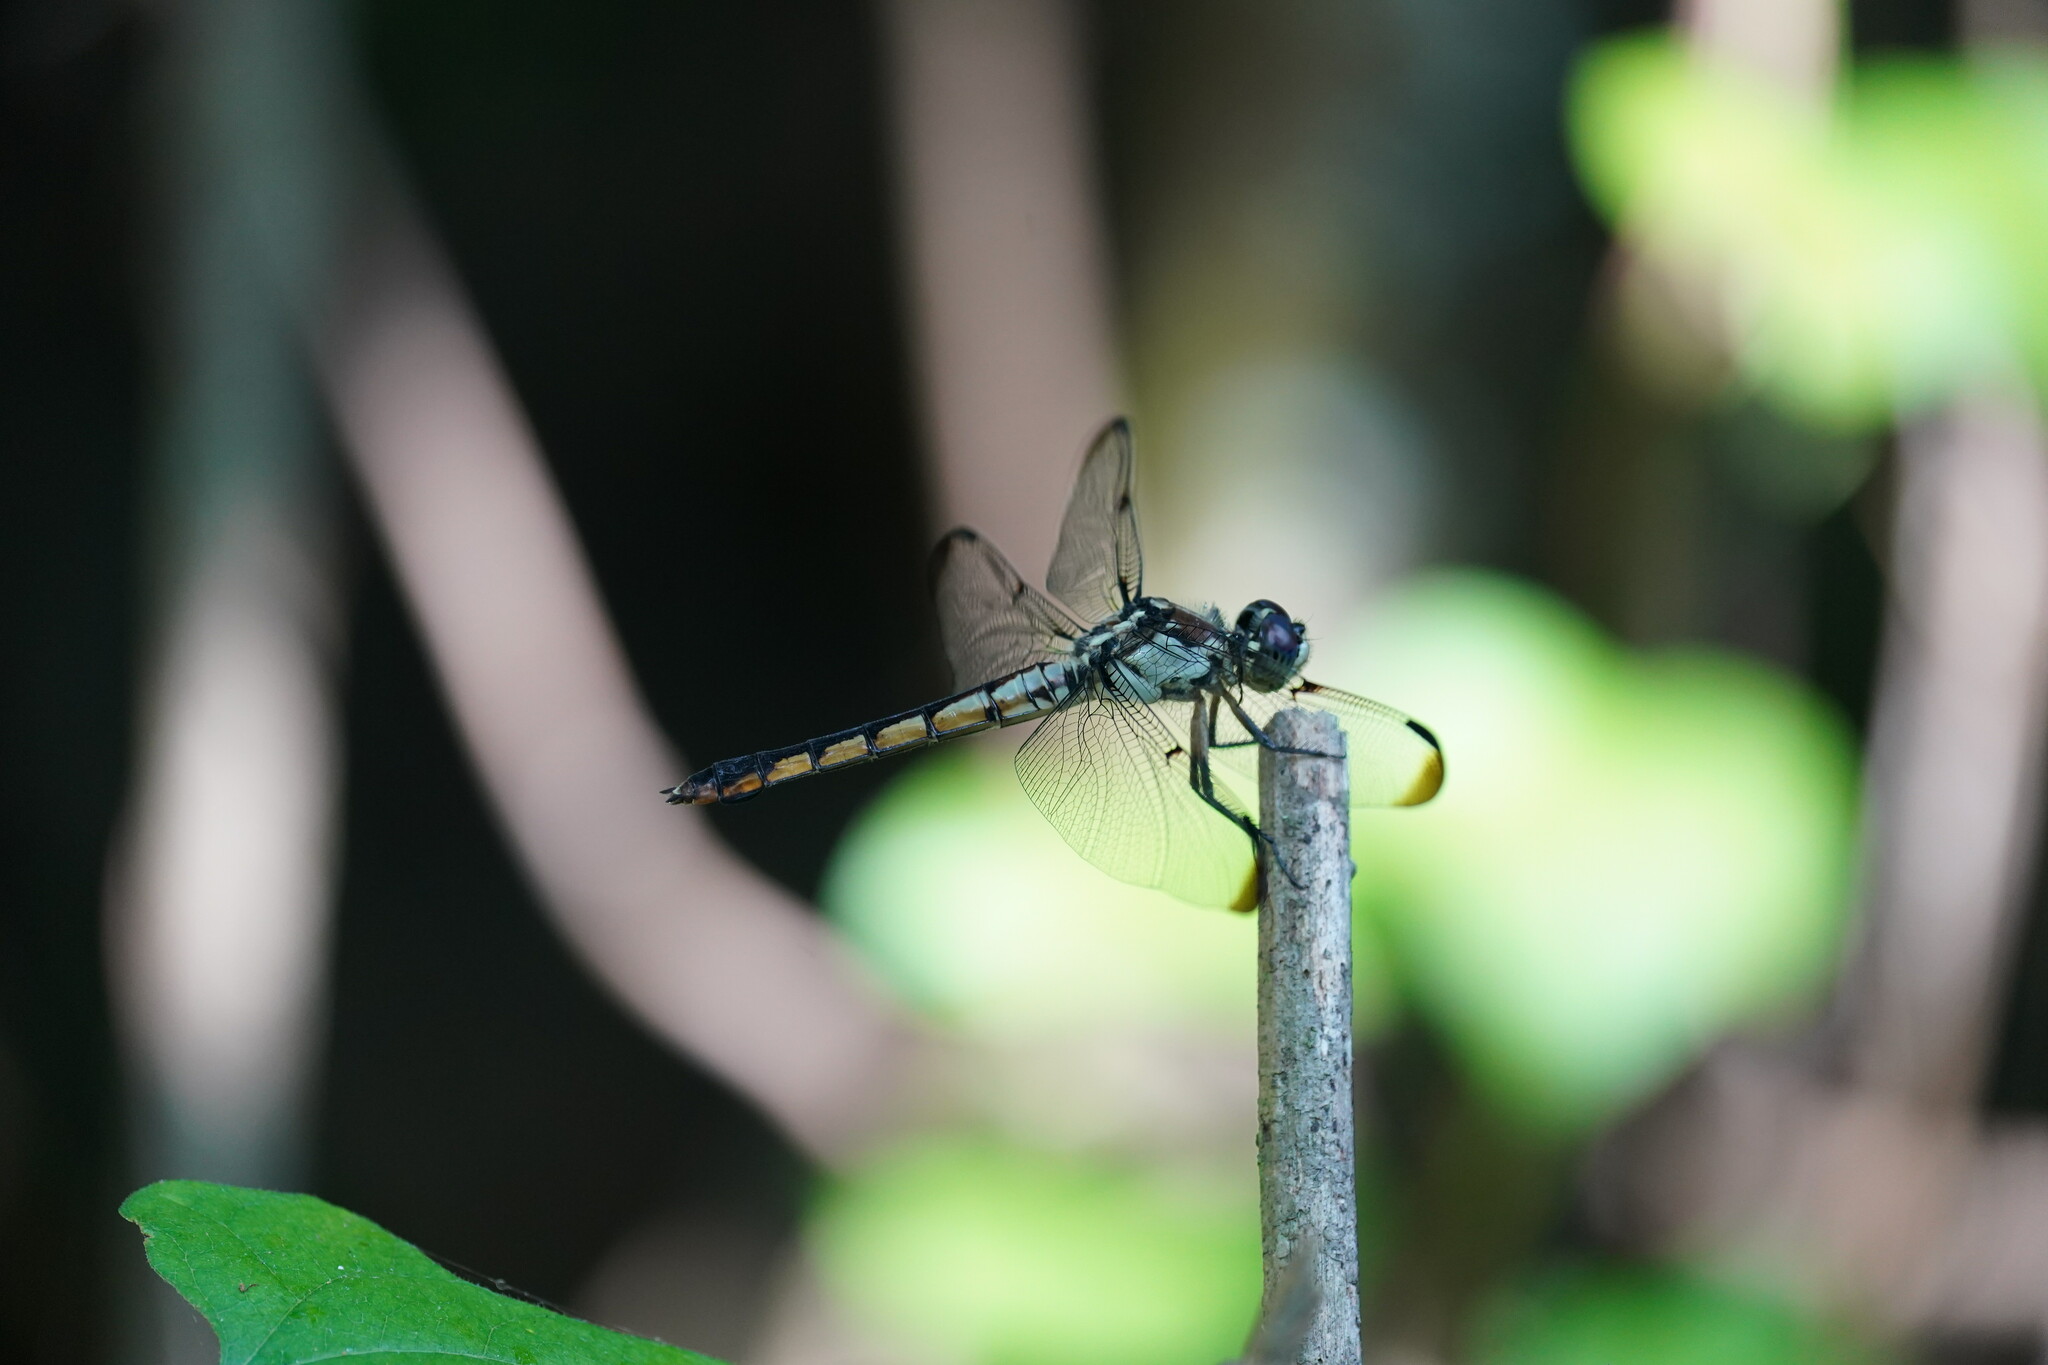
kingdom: Animalia
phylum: Arthropoda
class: Insecta
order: Odonata
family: Libellulidae
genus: Libellula
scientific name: Libellula vibrans
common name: Great blue skimmer
